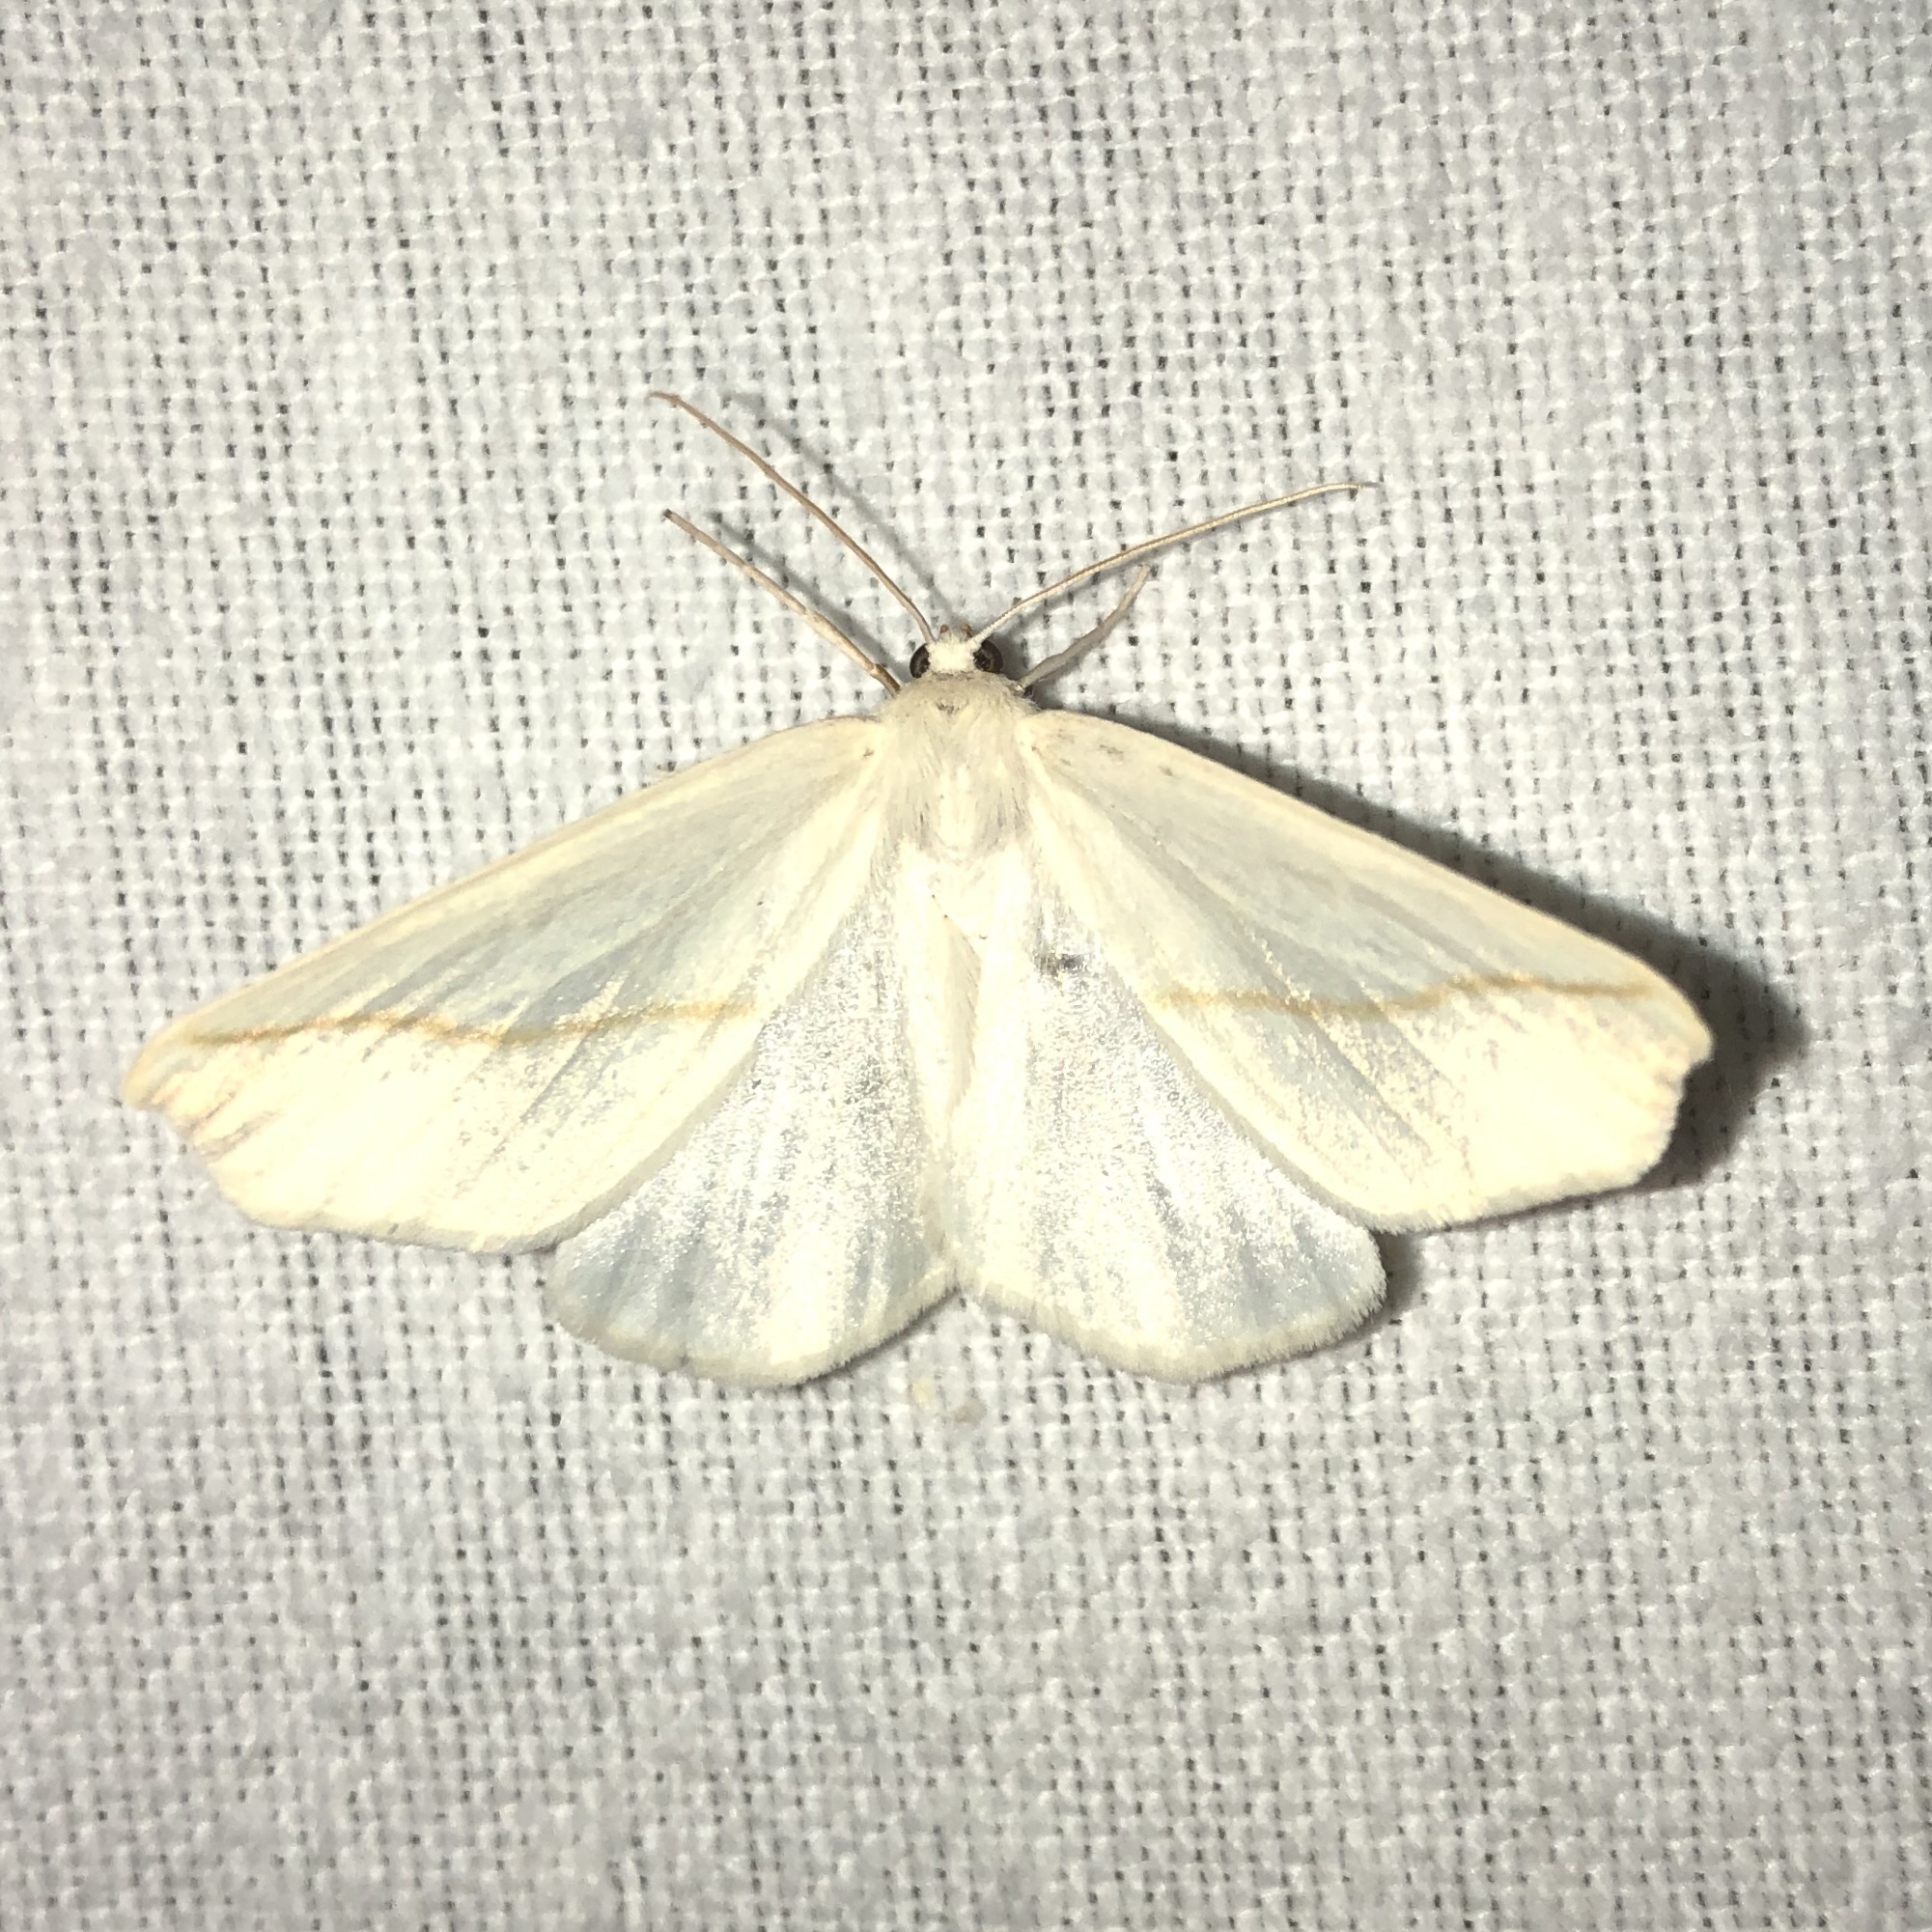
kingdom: Animalia
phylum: Arthropoda
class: Insecta
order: Lepidoptera
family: Geometridae
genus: Tetracis
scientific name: Tetracis cachexiata
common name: White slant-line
